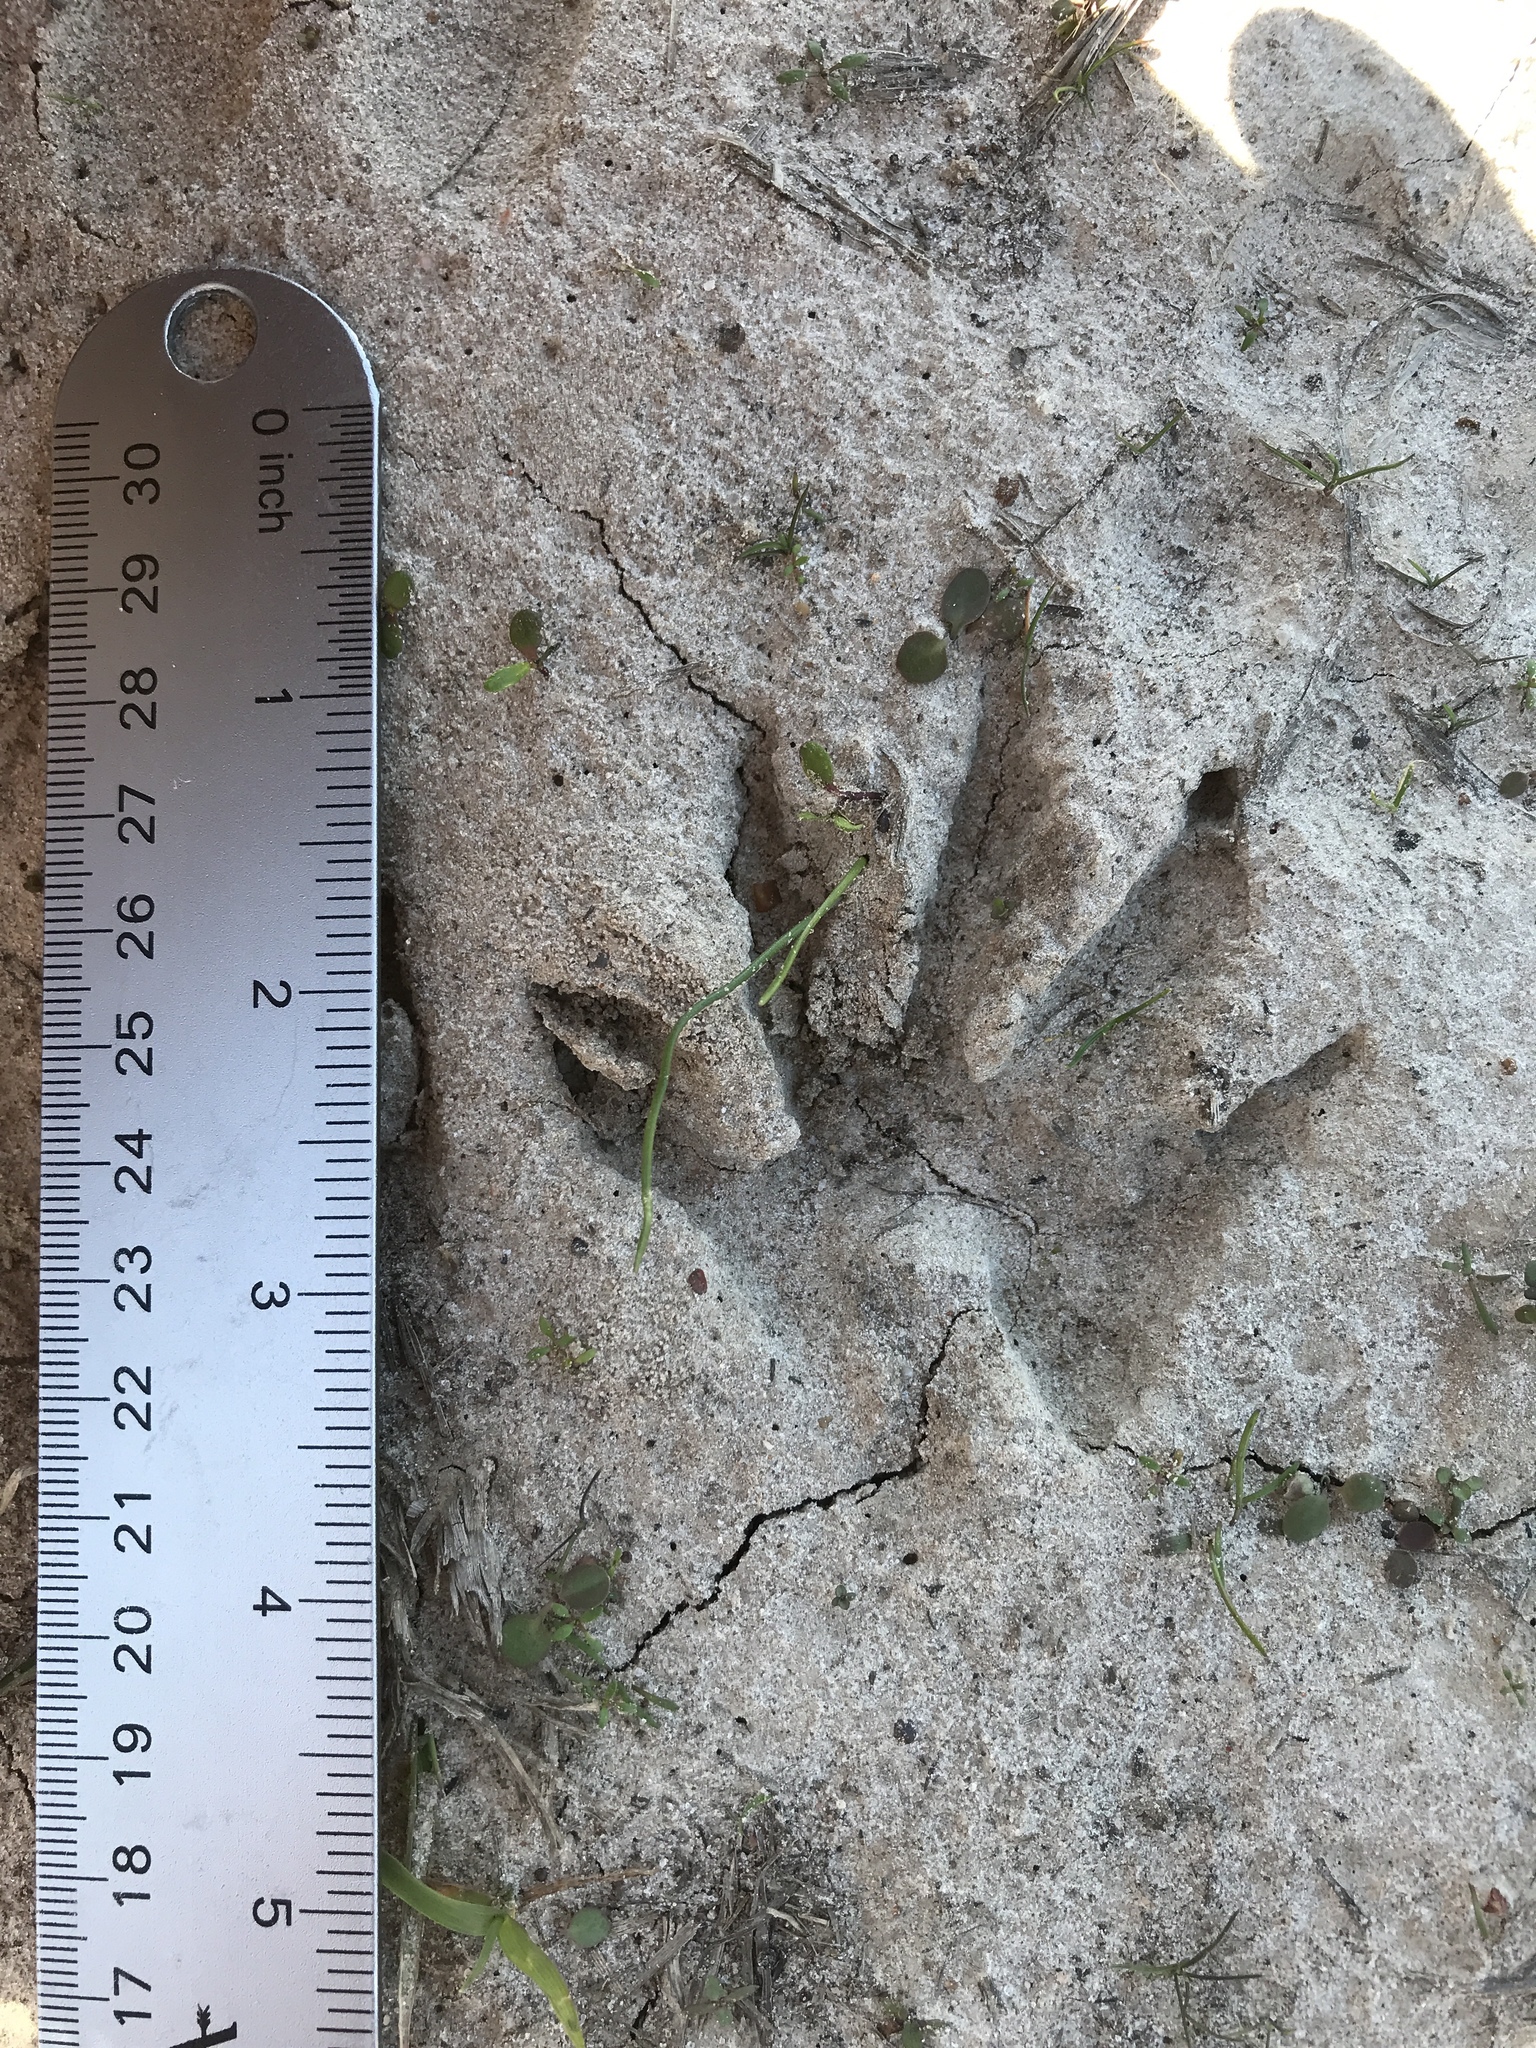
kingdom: Animalia
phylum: Chordata
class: Mammalia
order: Carnivora
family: Procyonidae
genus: Procyon
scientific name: Procyon lotor
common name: Raccoon
